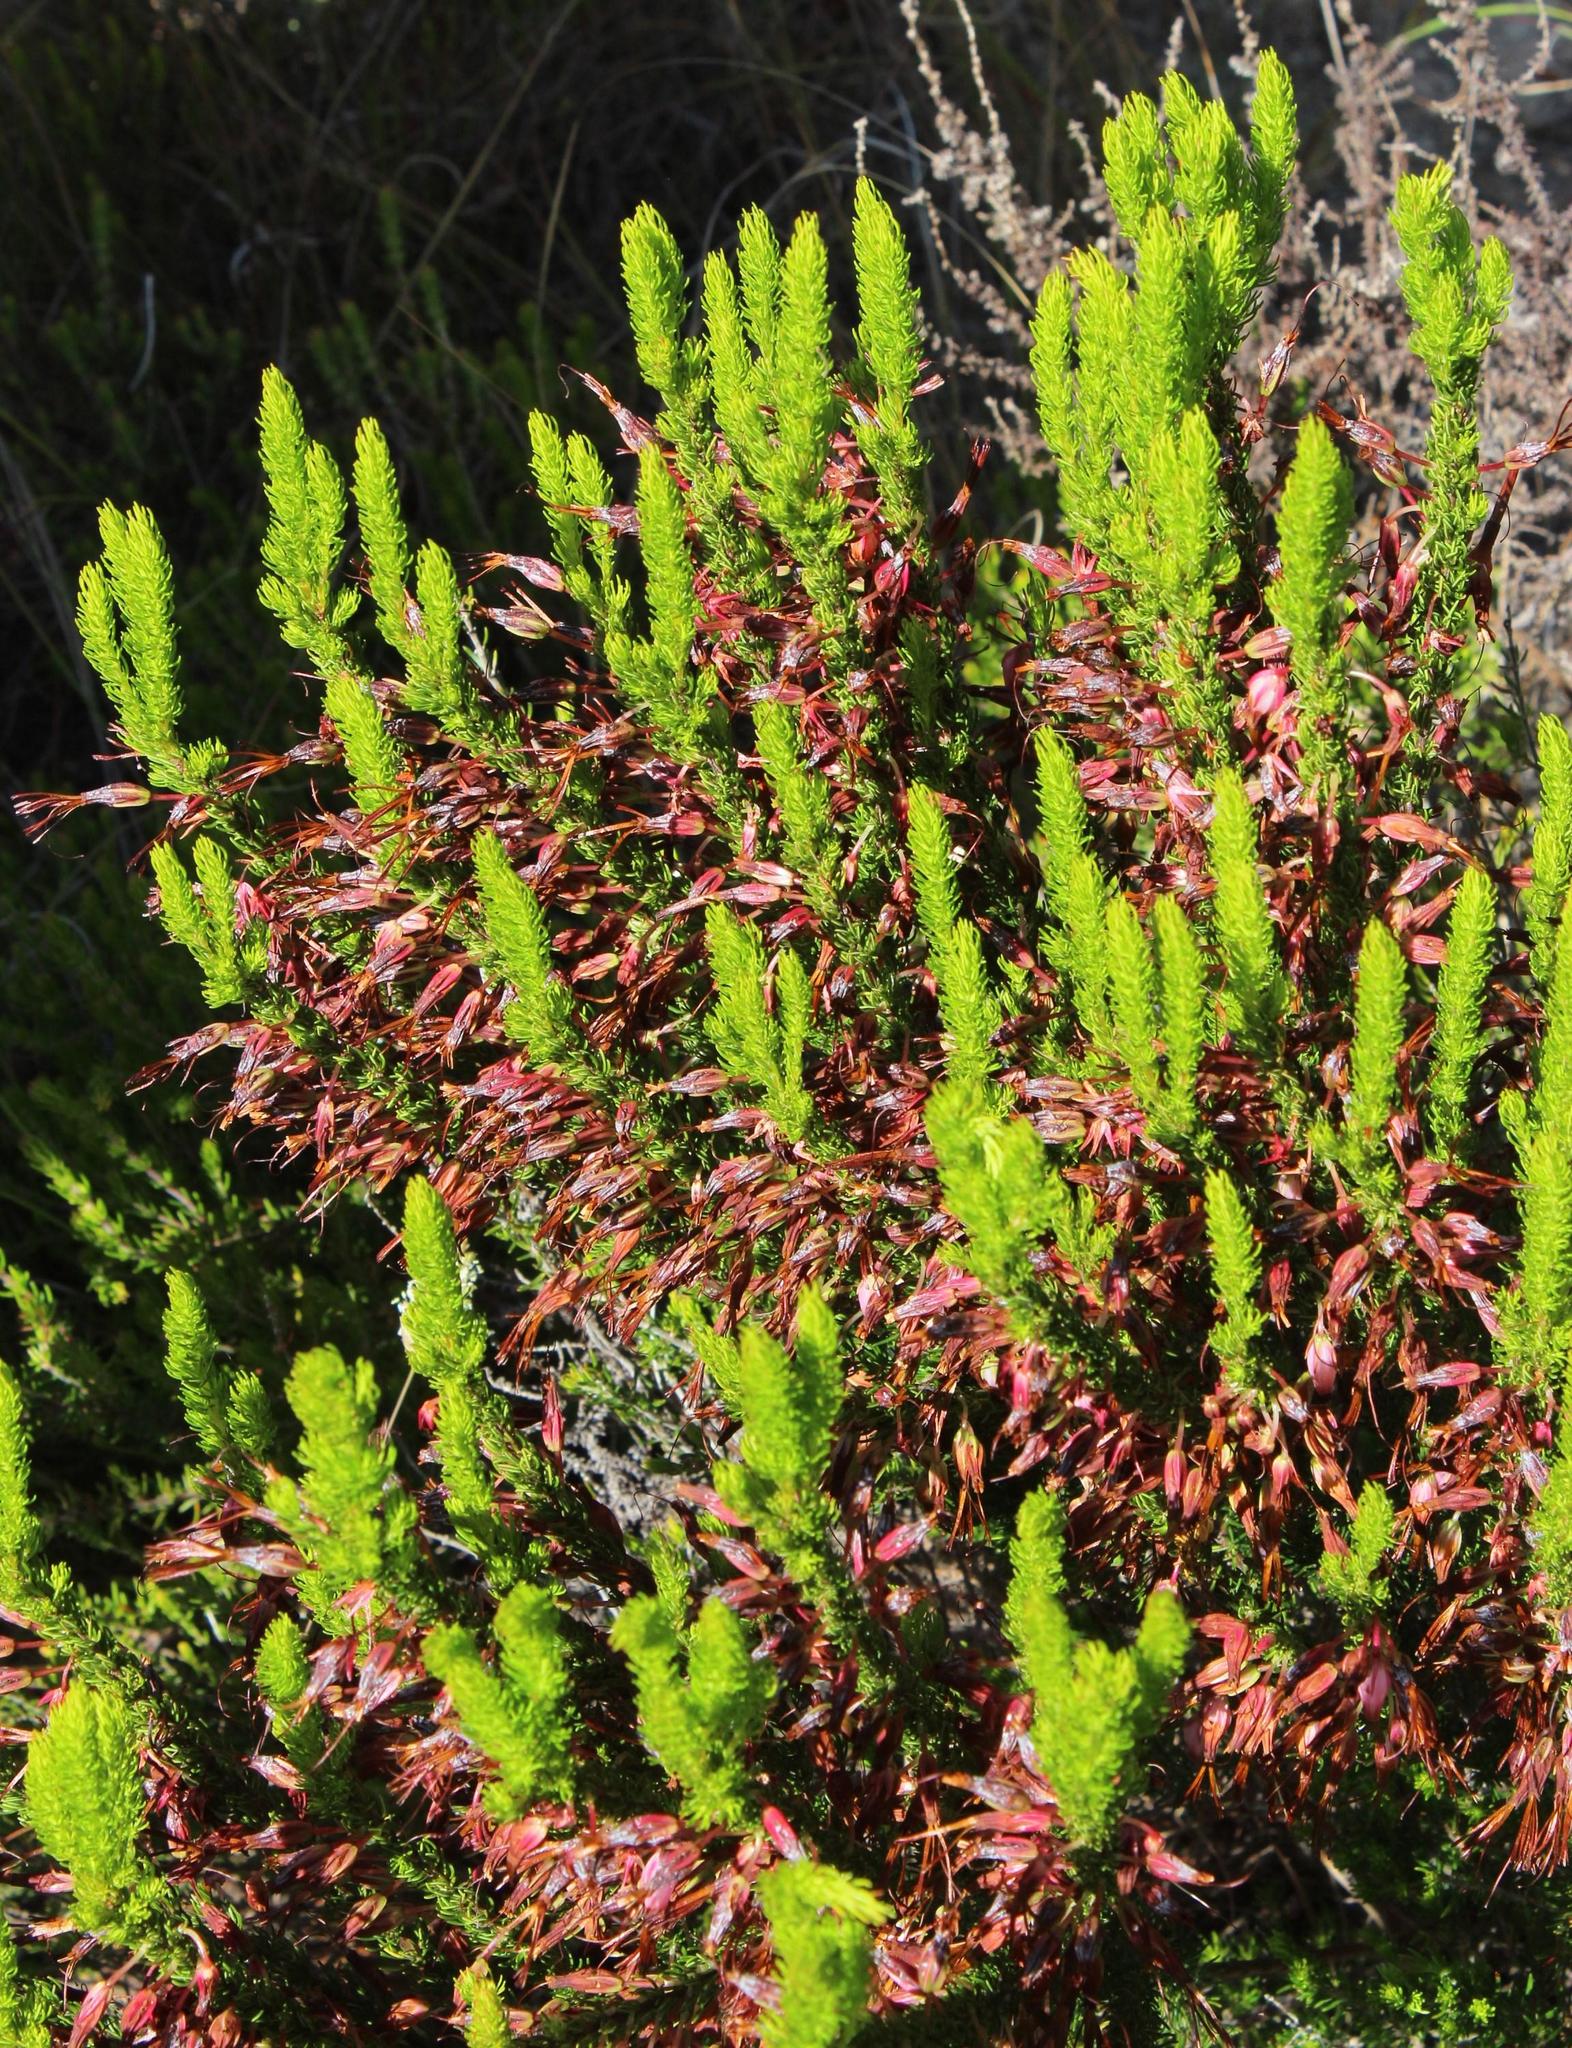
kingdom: Plantae
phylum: Tracheophyta
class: Magnoliopsida
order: Ericales
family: Ericaceae
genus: Erica
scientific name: Erica plukenetii
